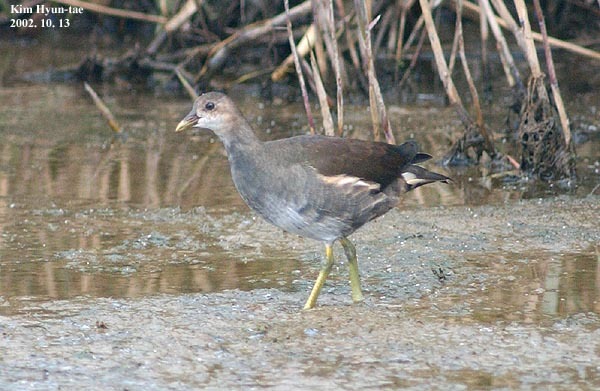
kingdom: Animalia
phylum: Chordata
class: Aves
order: Gruiformes
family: Rallidae
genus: Gallinula
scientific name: Gallinula chloropus
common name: Common moorhen
